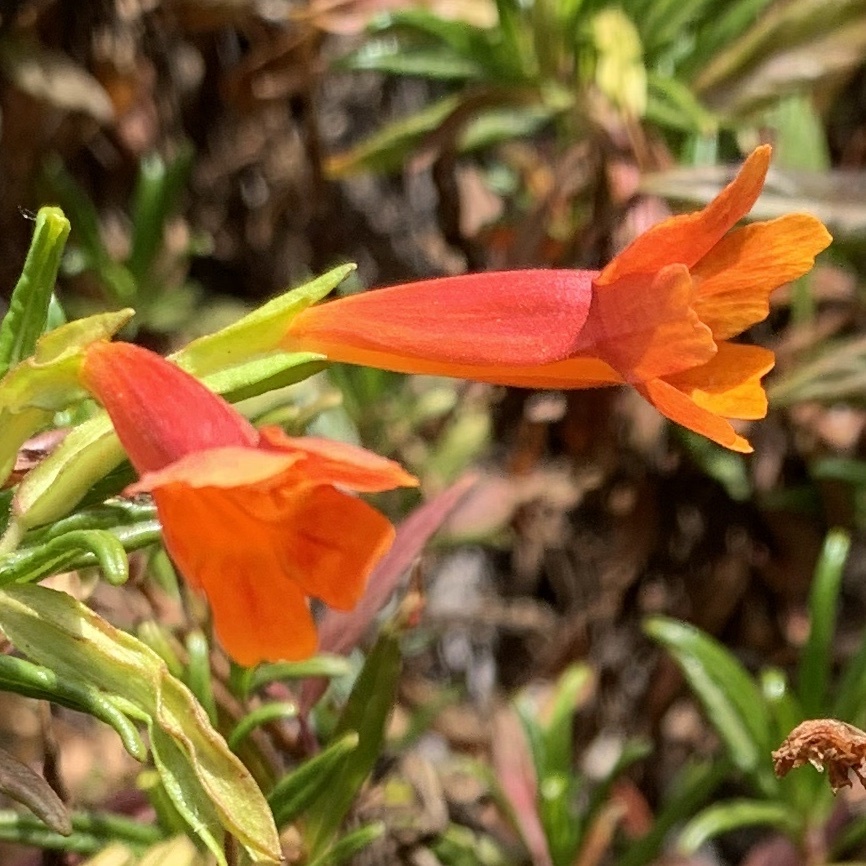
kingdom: Plantae
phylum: Tracheophyta
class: Magnoliopsida
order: Lamiales
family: Phrymaceae
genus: Diplacus
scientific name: Diplacus parviflorus
